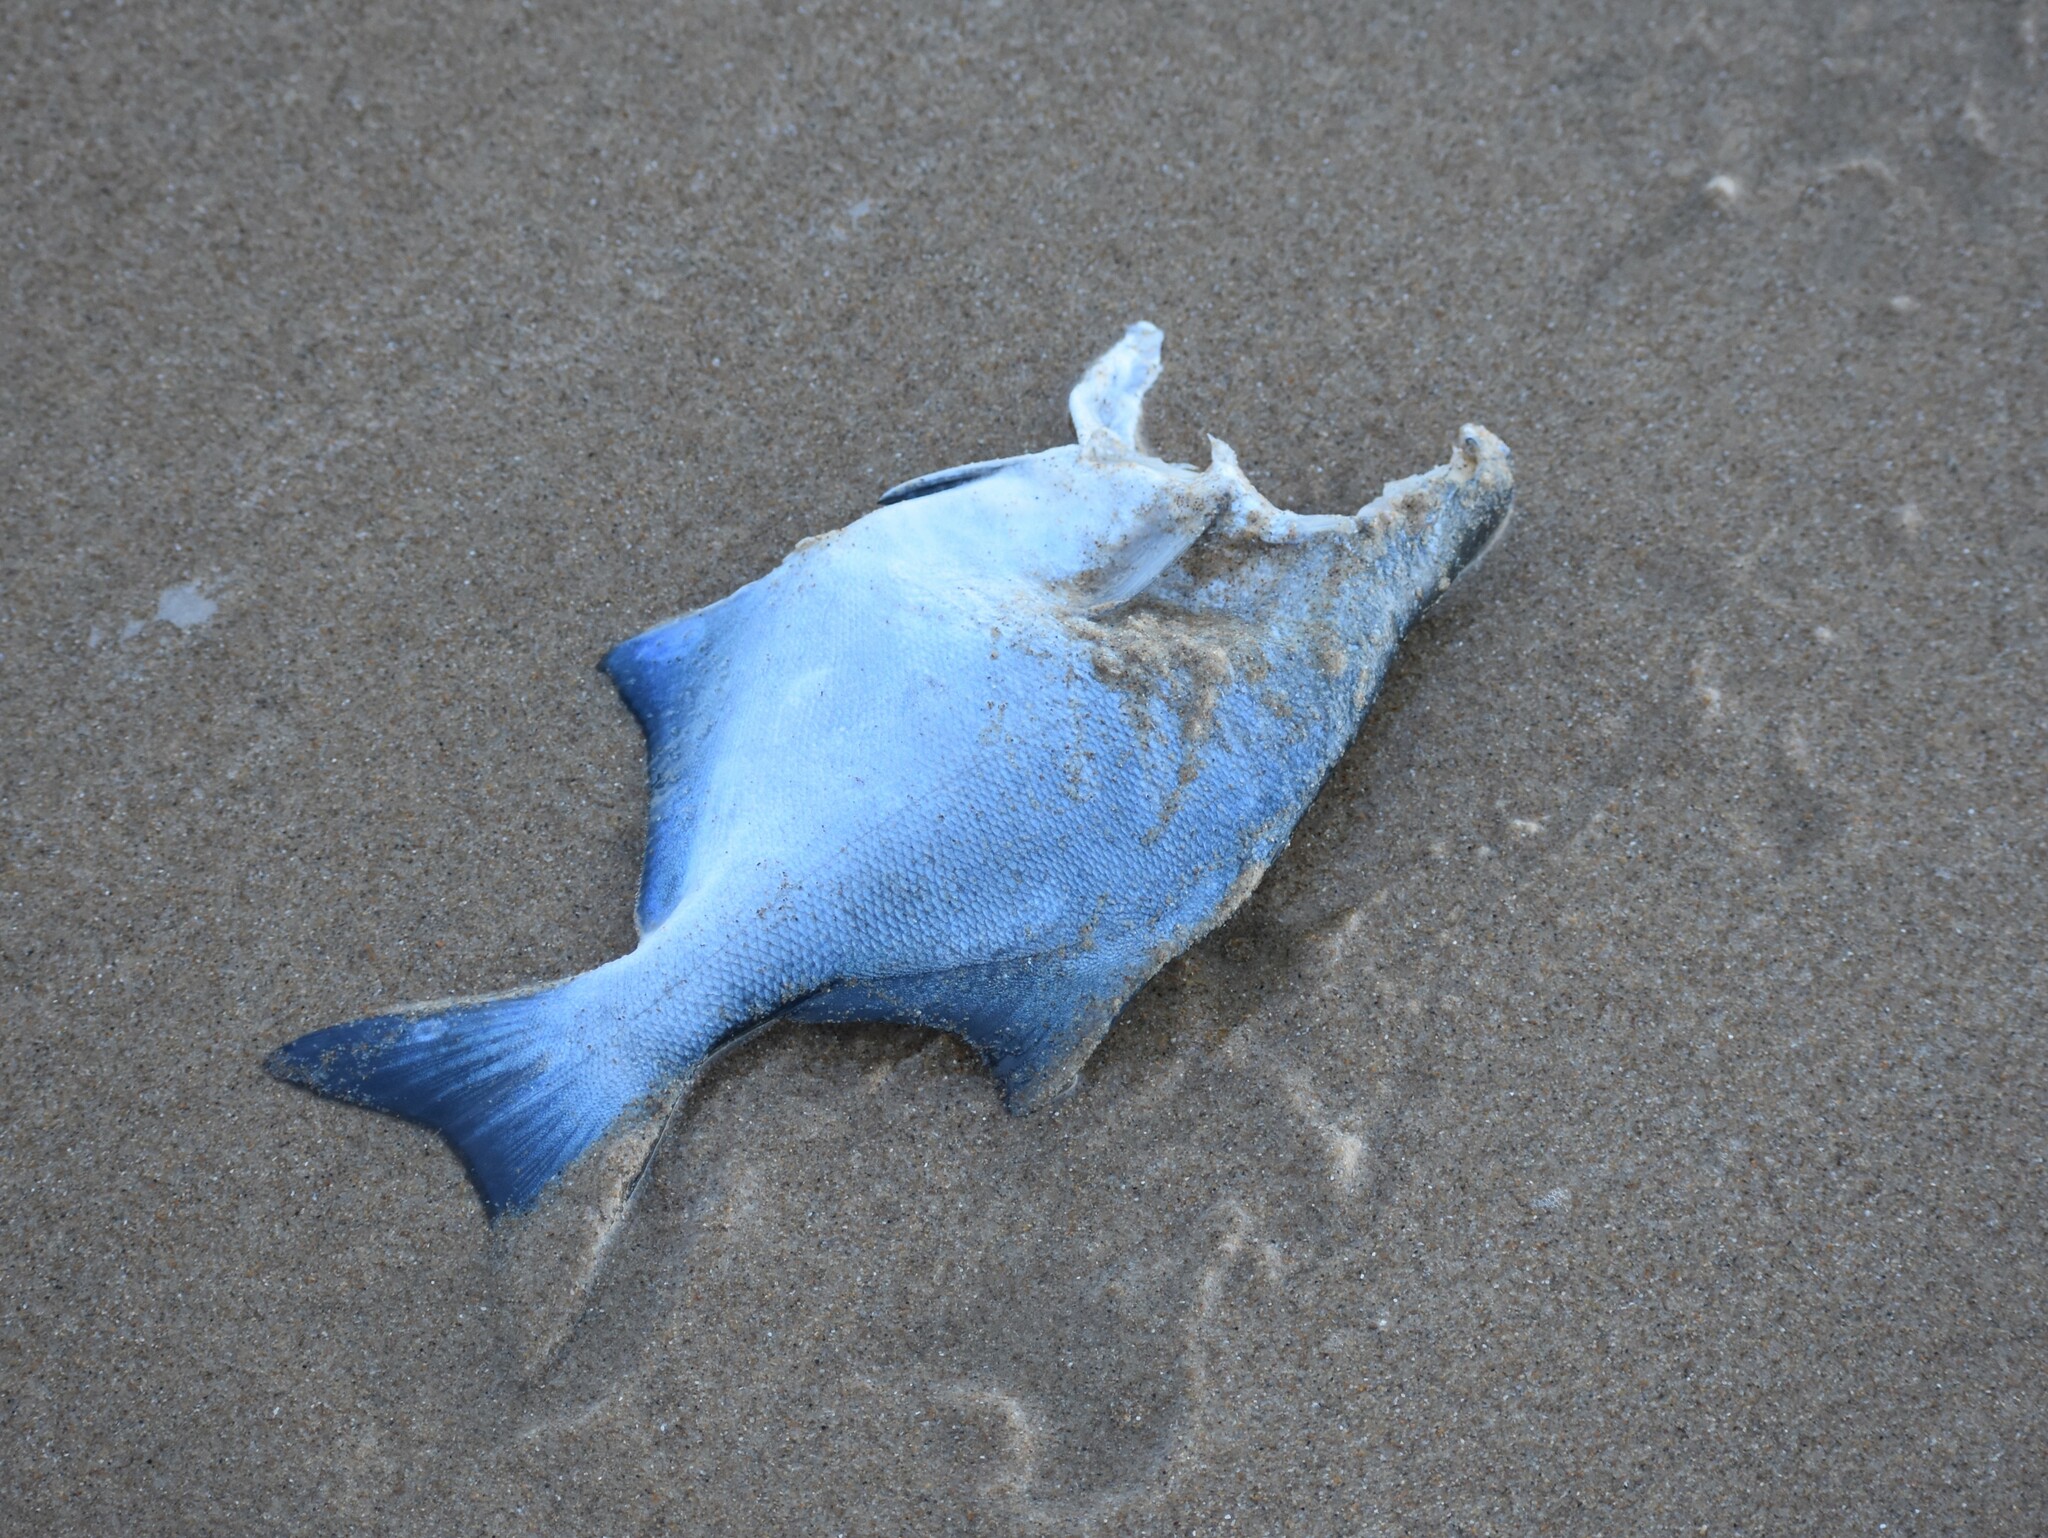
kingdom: Animalia
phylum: Chordata
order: Perciformes
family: Dichistiidae
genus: Dichistius
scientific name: Dichistius capensis
